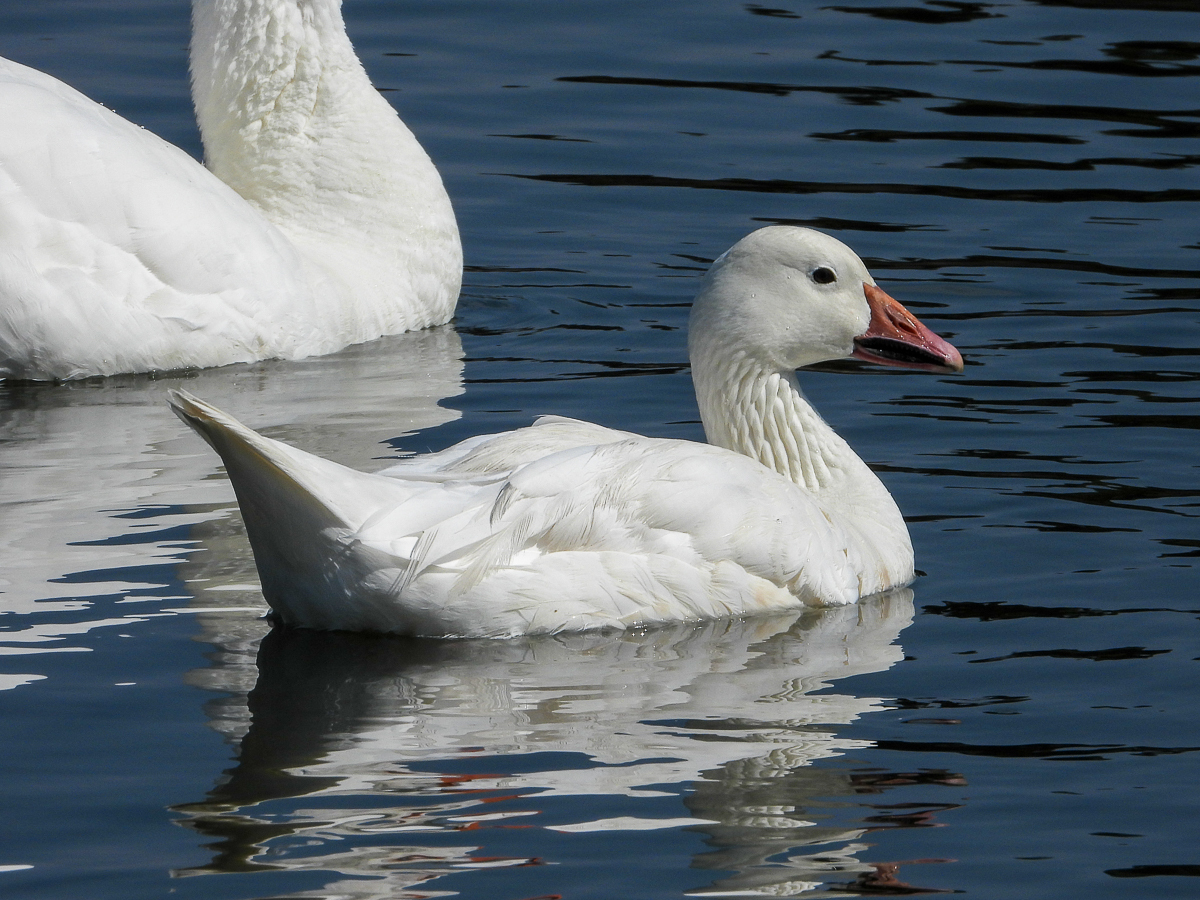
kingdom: Animalia
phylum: Chordata
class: Aves
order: Anseriformes
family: Anatidae
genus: Anser
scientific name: Anser caerulescens
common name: Snow goose
